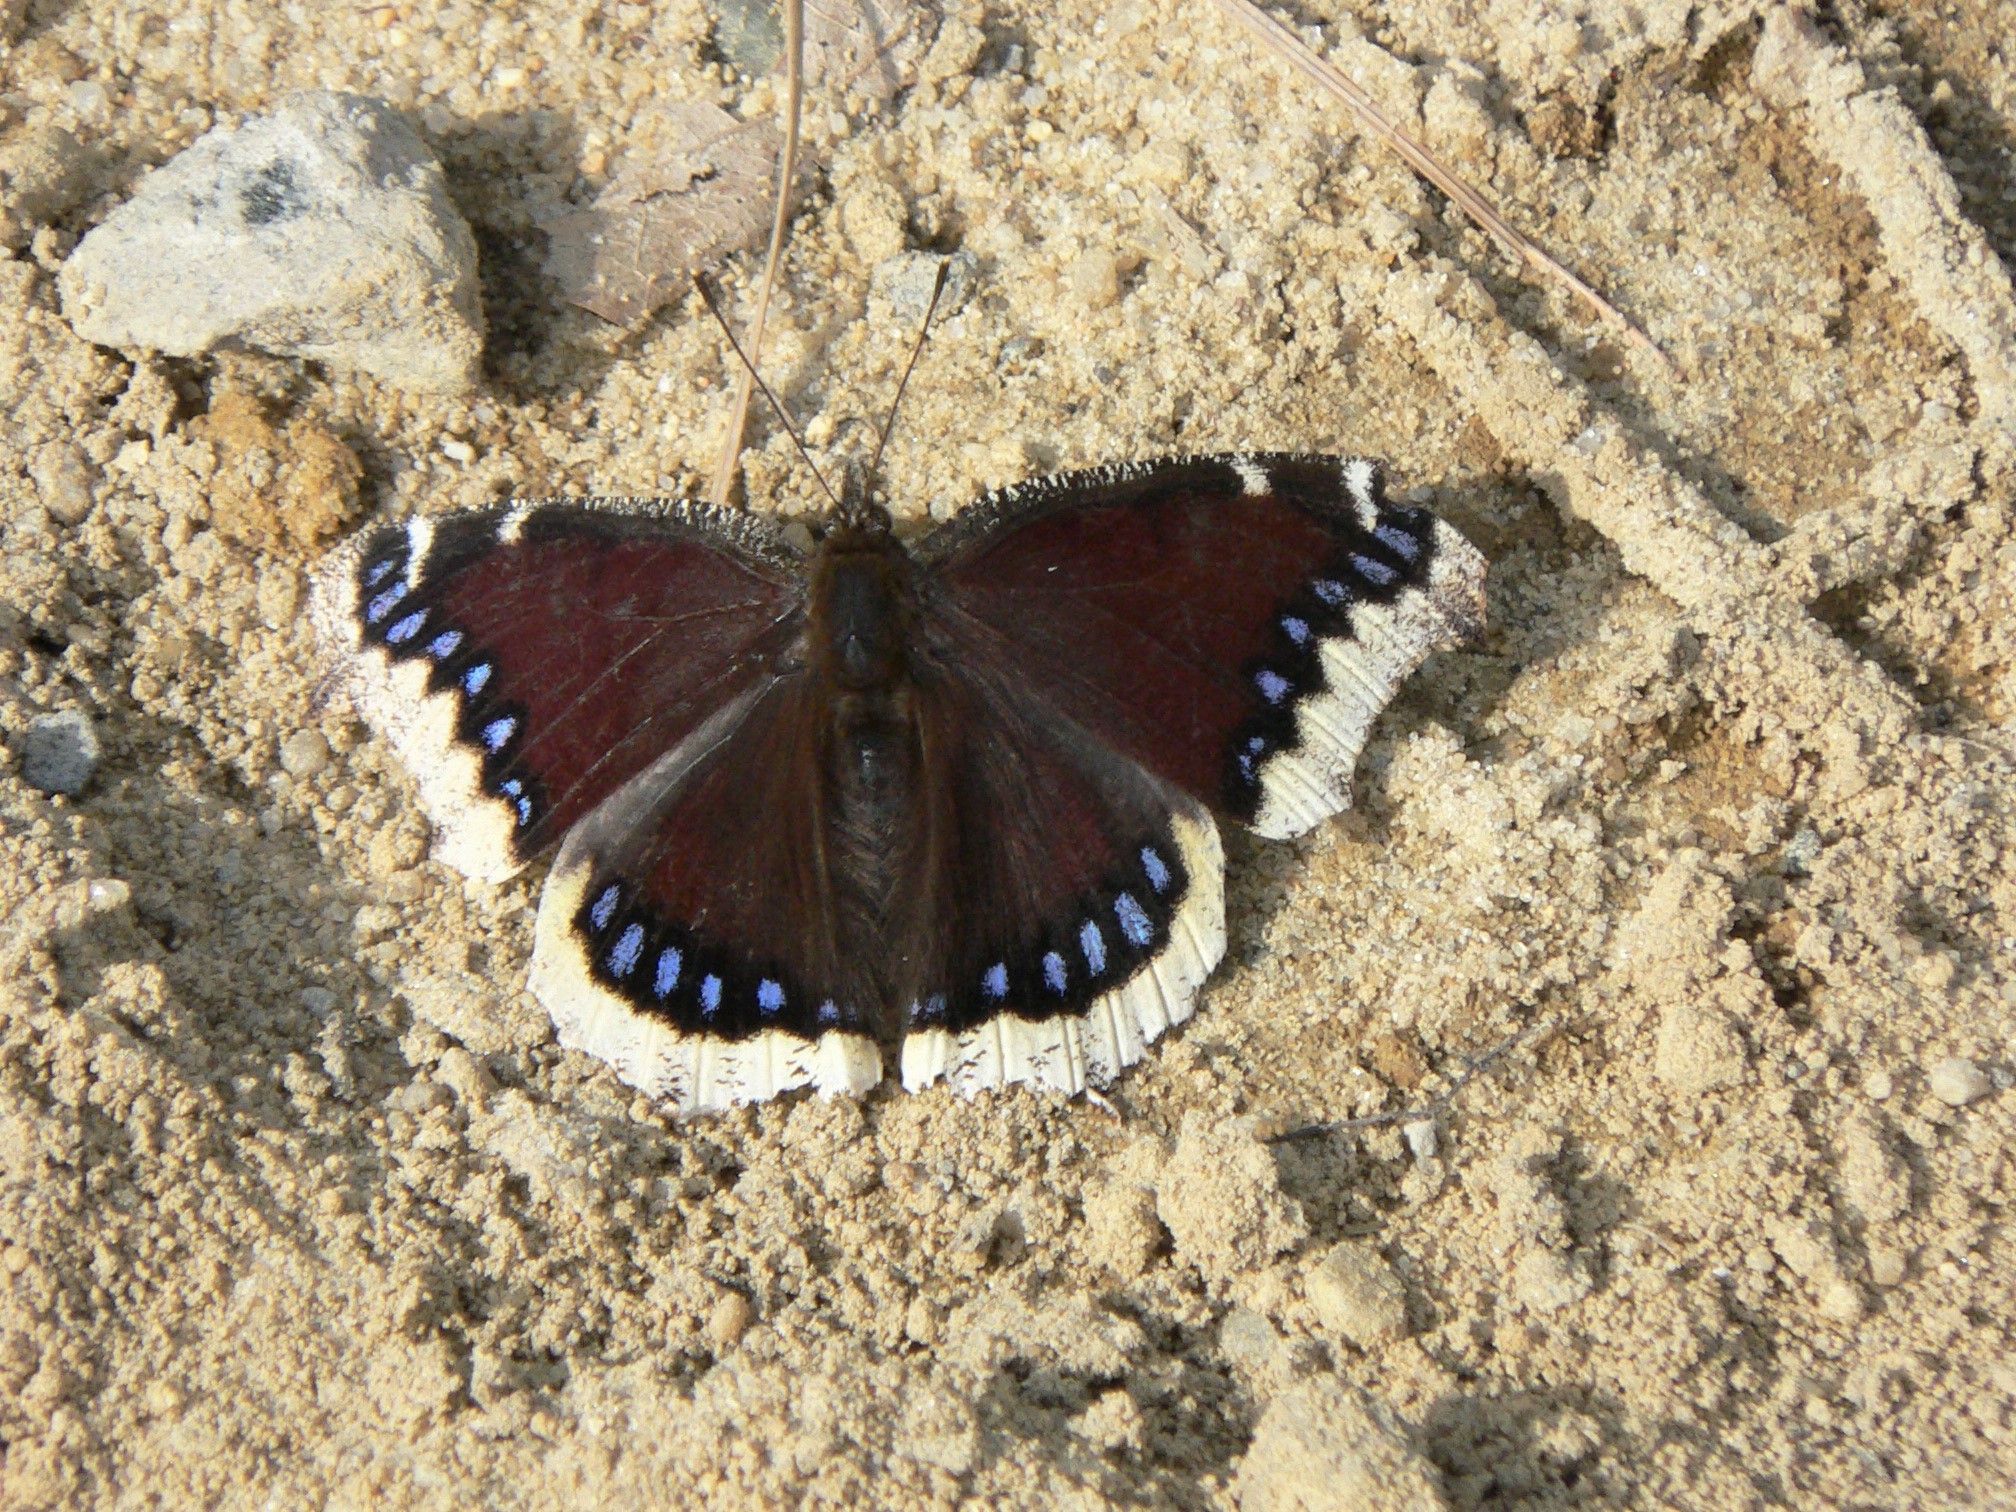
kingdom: Animalia
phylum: Arthropoda
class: Insecta
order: Lepidoptera
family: Nymphalidae
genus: Nymphalis
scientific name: Nymphalis antiopa
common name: Camberwell beauty
